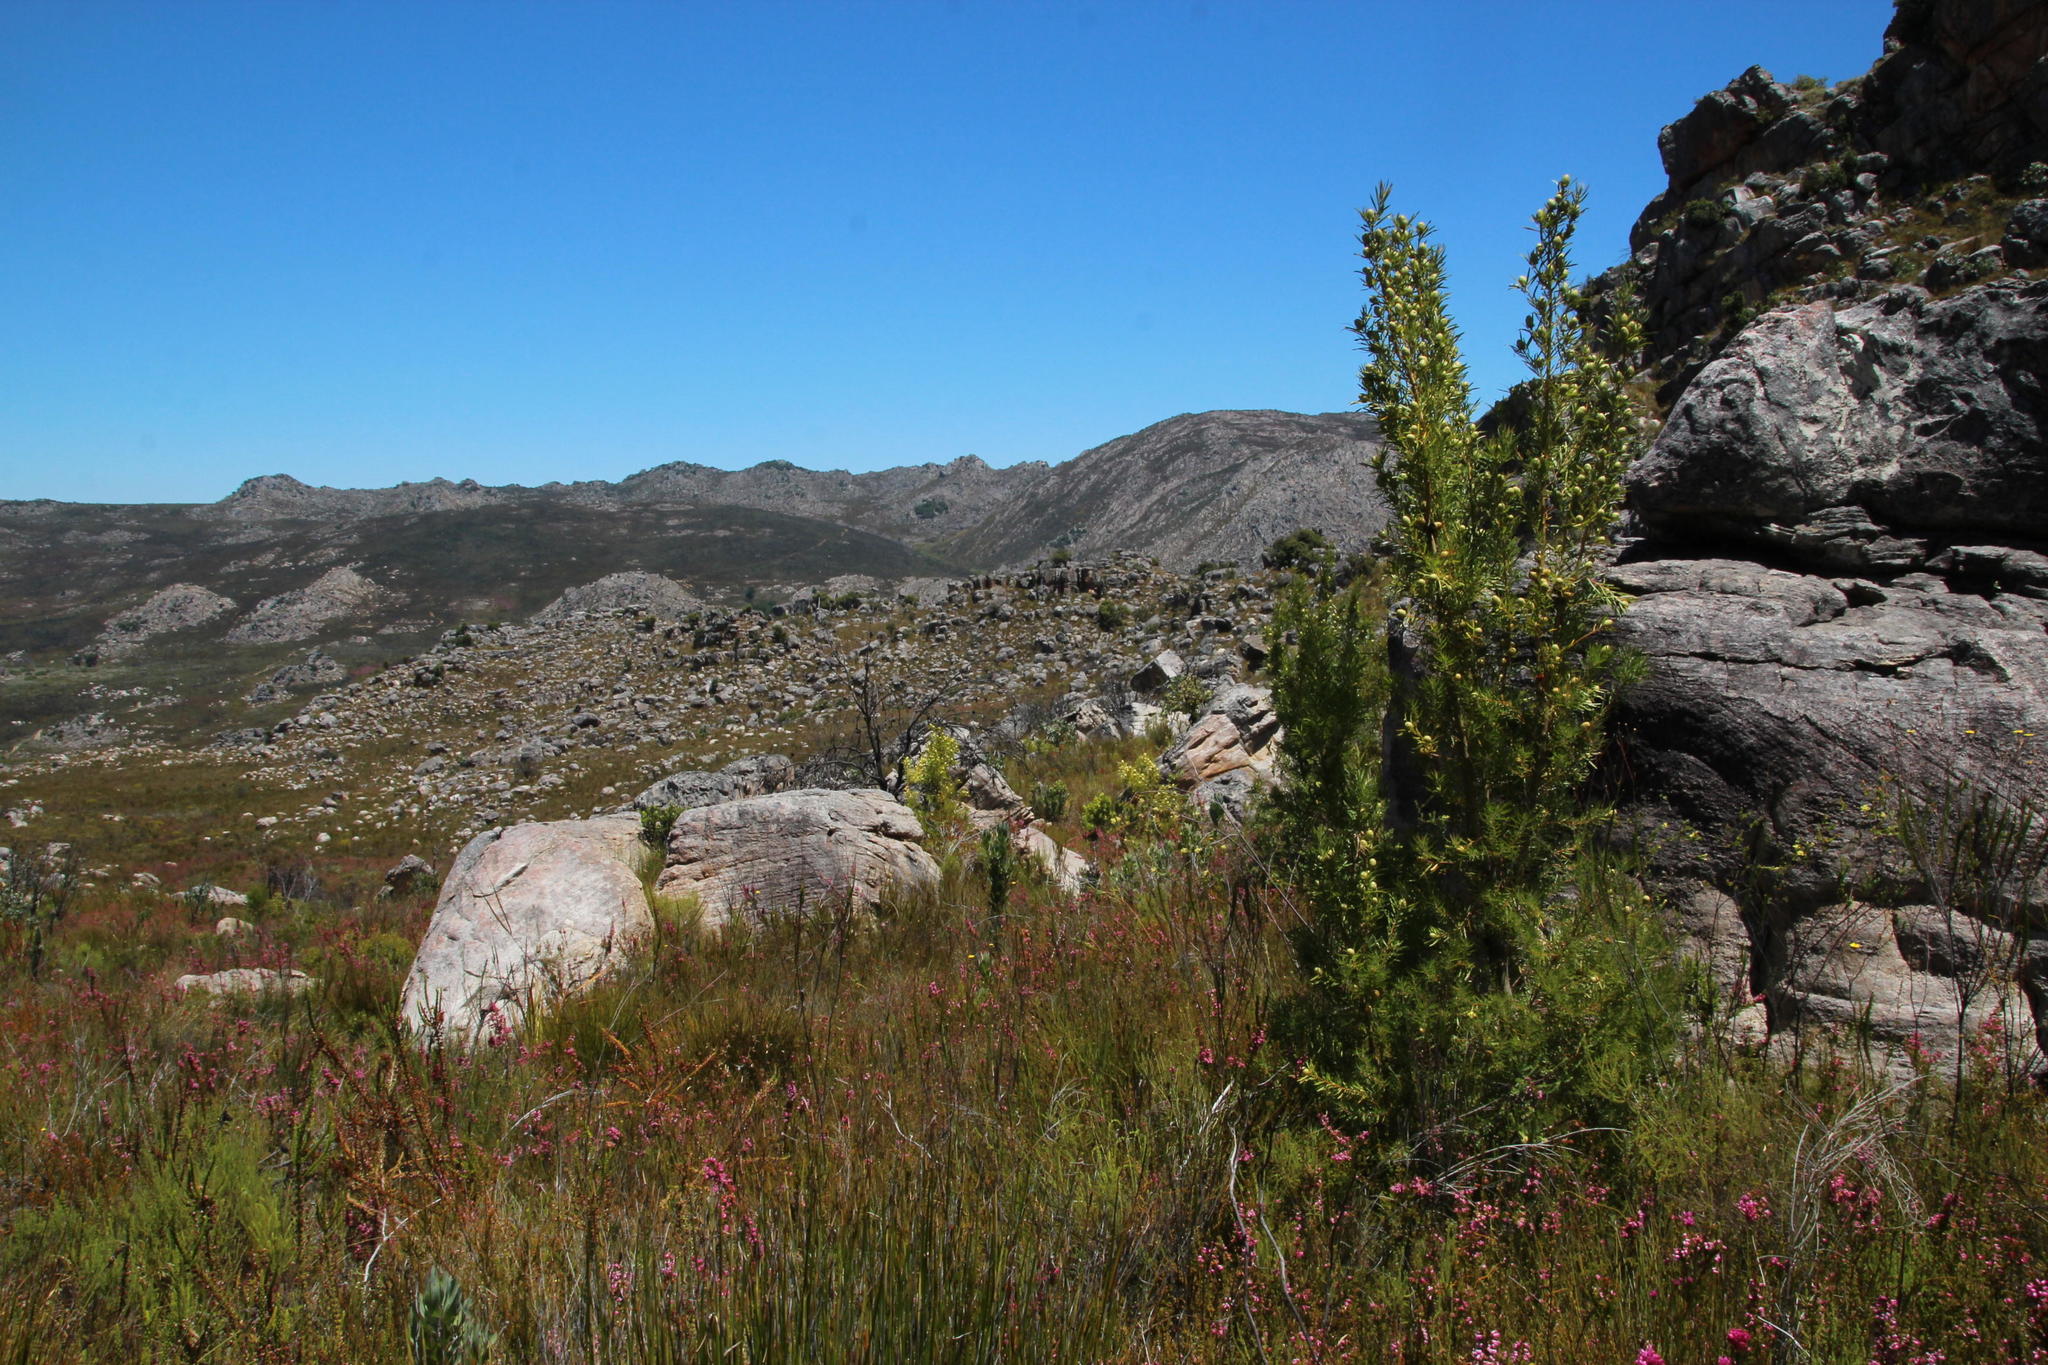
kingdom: Plantae
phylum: Tracheophyta
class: Magnoliopsida
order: Proteales
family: Proteaceae
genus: Leucadendron
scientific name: Leucadendron salicifolium
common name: Common stream conebush
